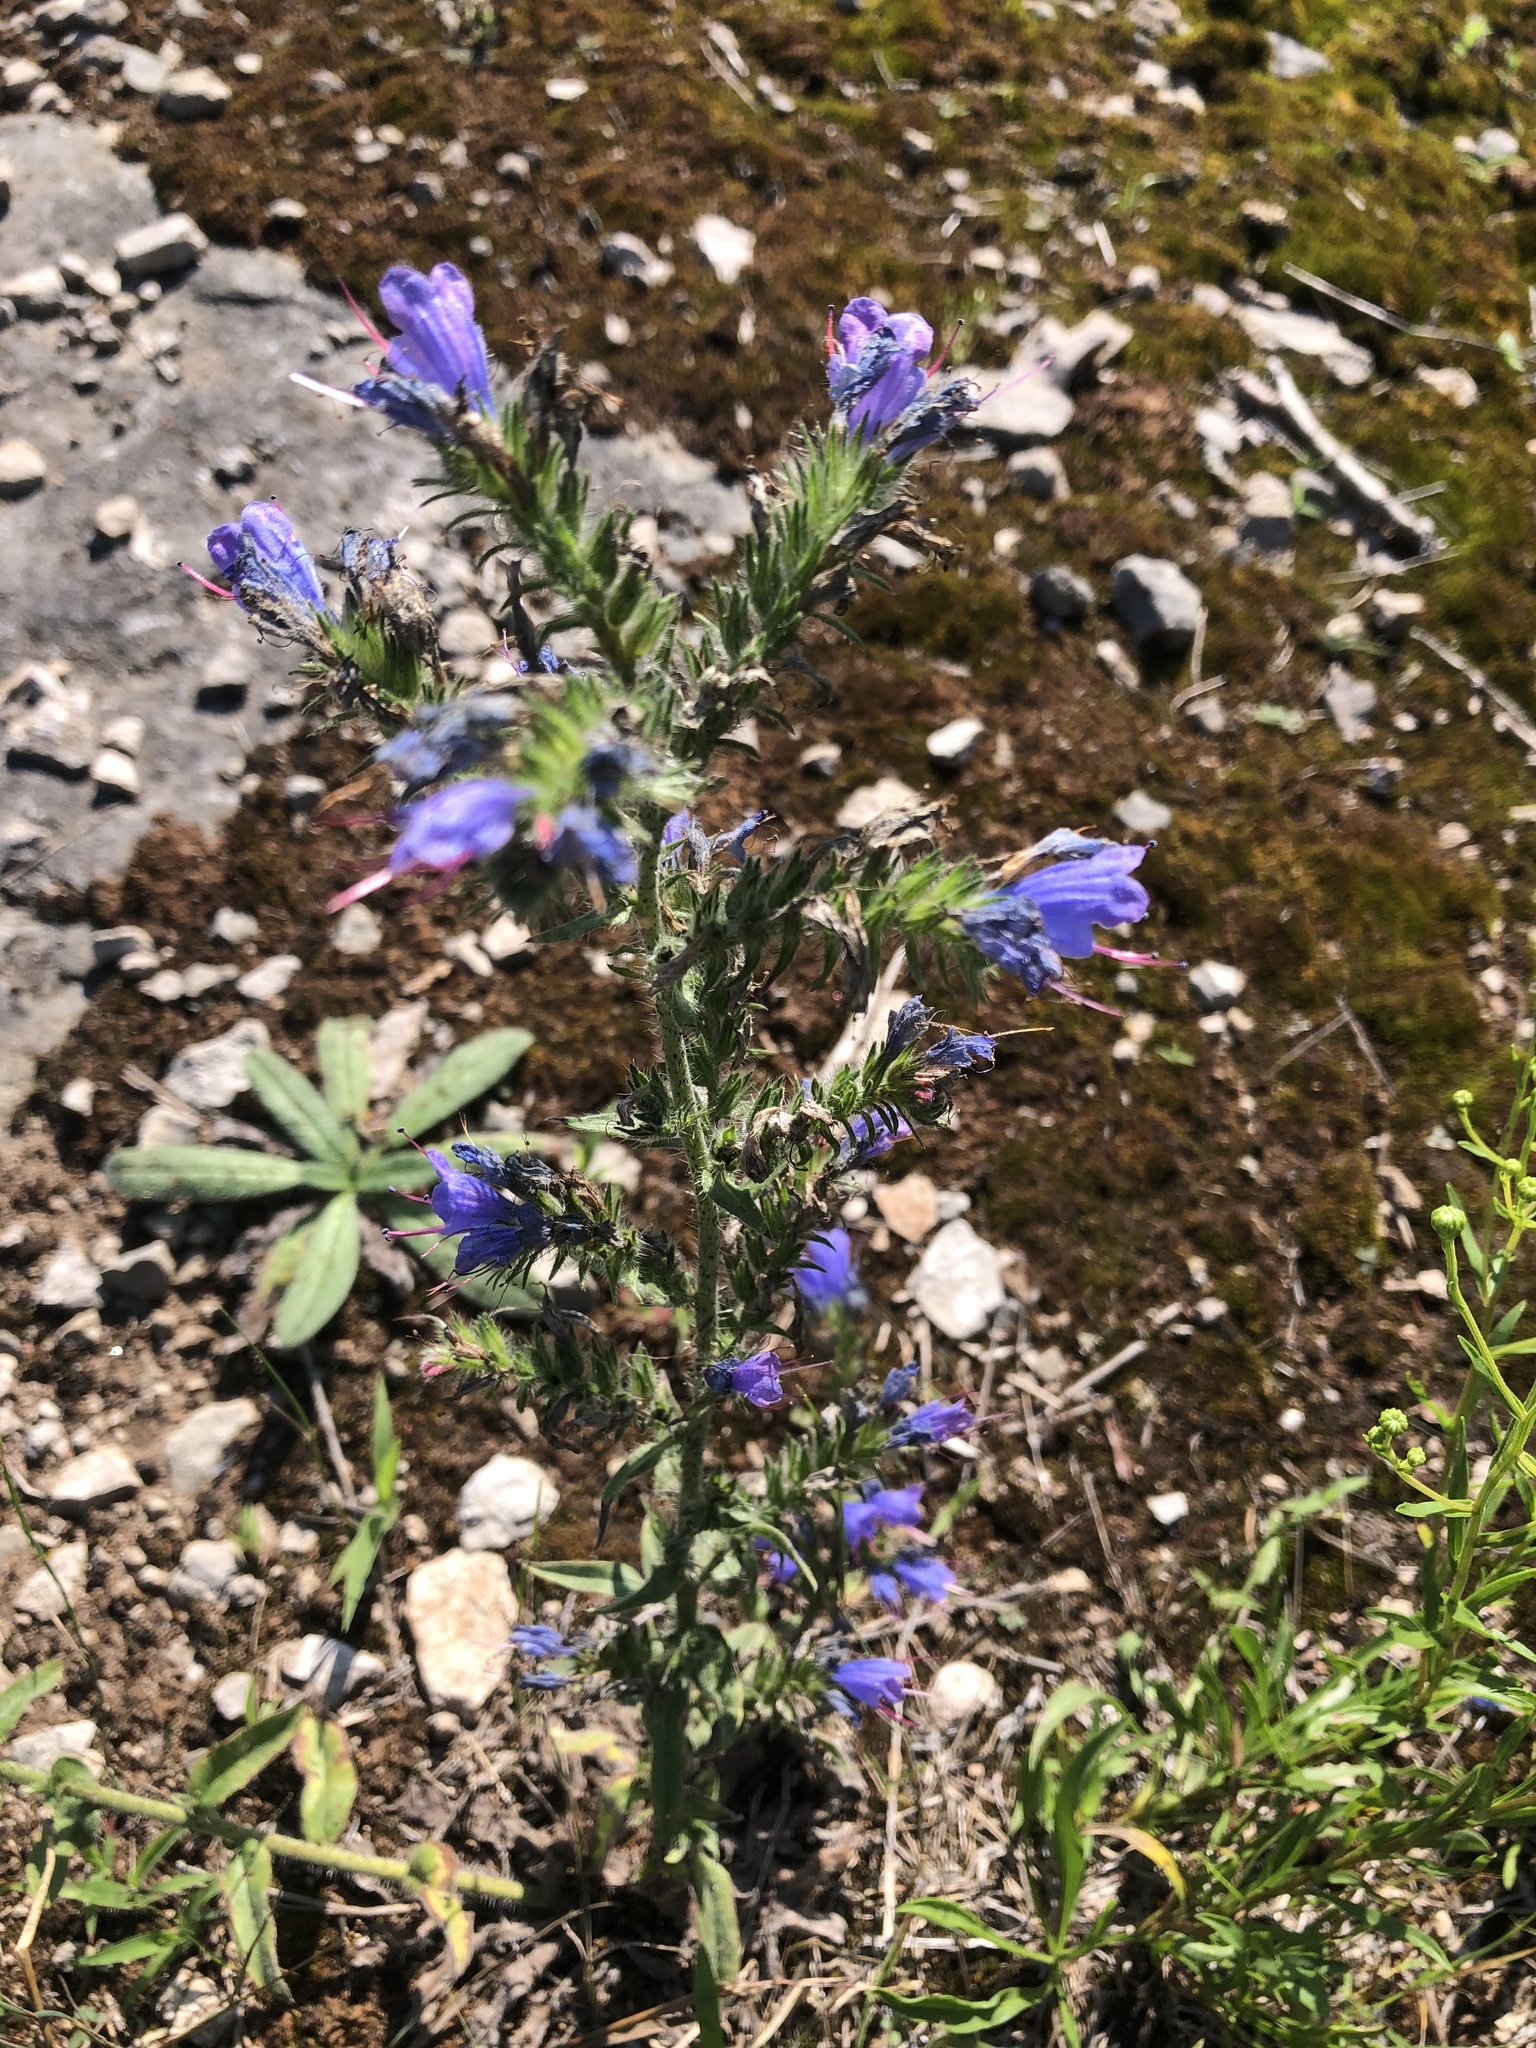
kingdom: Plantae
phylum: Tracheophyta
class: Magnoliopsida
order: Boraginales
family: Boraginaceae
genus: Echium
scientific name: Echium vulgare
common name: Common viper's bugloss
